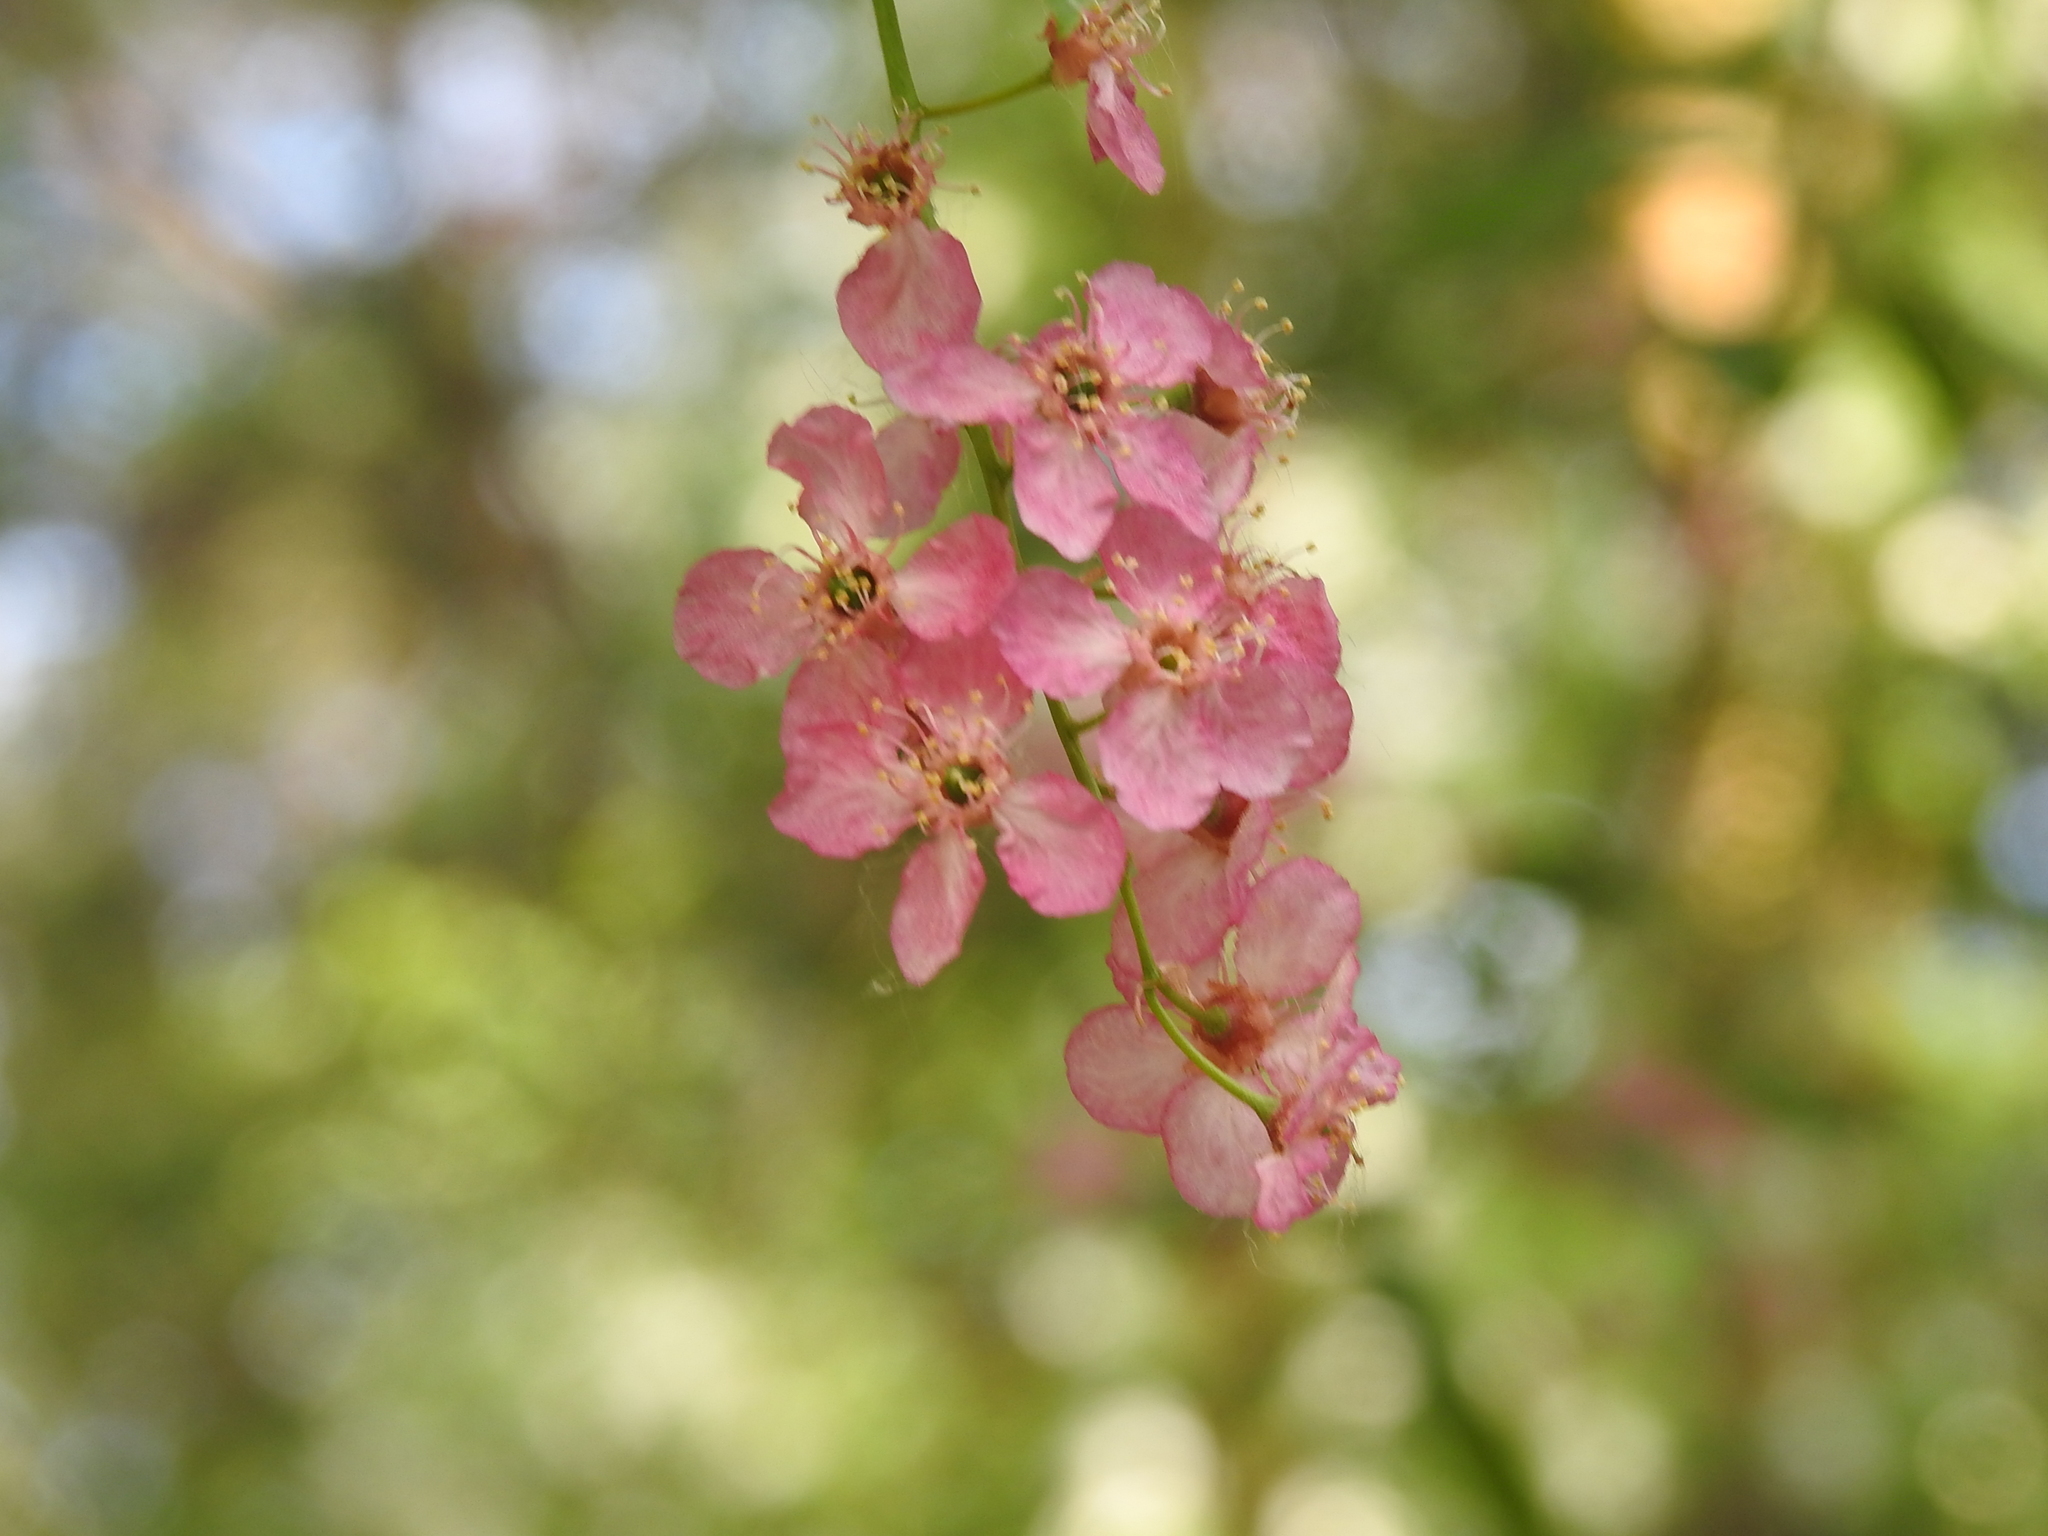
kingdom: Plantae
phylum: Tracheophyta
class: Magnoliopsida
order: Rosales
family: Rosaceae
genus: Prunus
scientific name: Prunus padus
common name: Bird cherry
